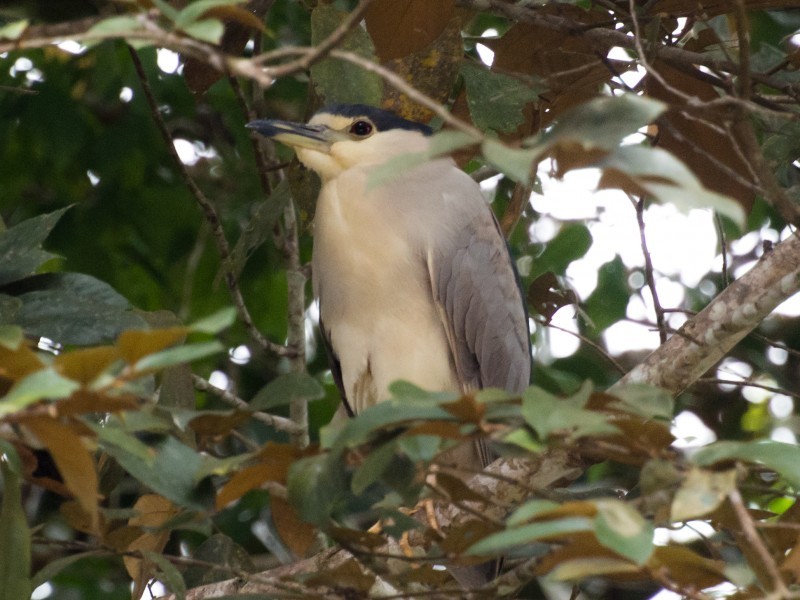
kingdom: Animalia
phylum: Chordata
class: Aves
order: Pelecaniformes
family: Ardeidae
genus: Nycticorax
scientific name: Nycticorax nycticorax
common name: Black-crowned night heron
